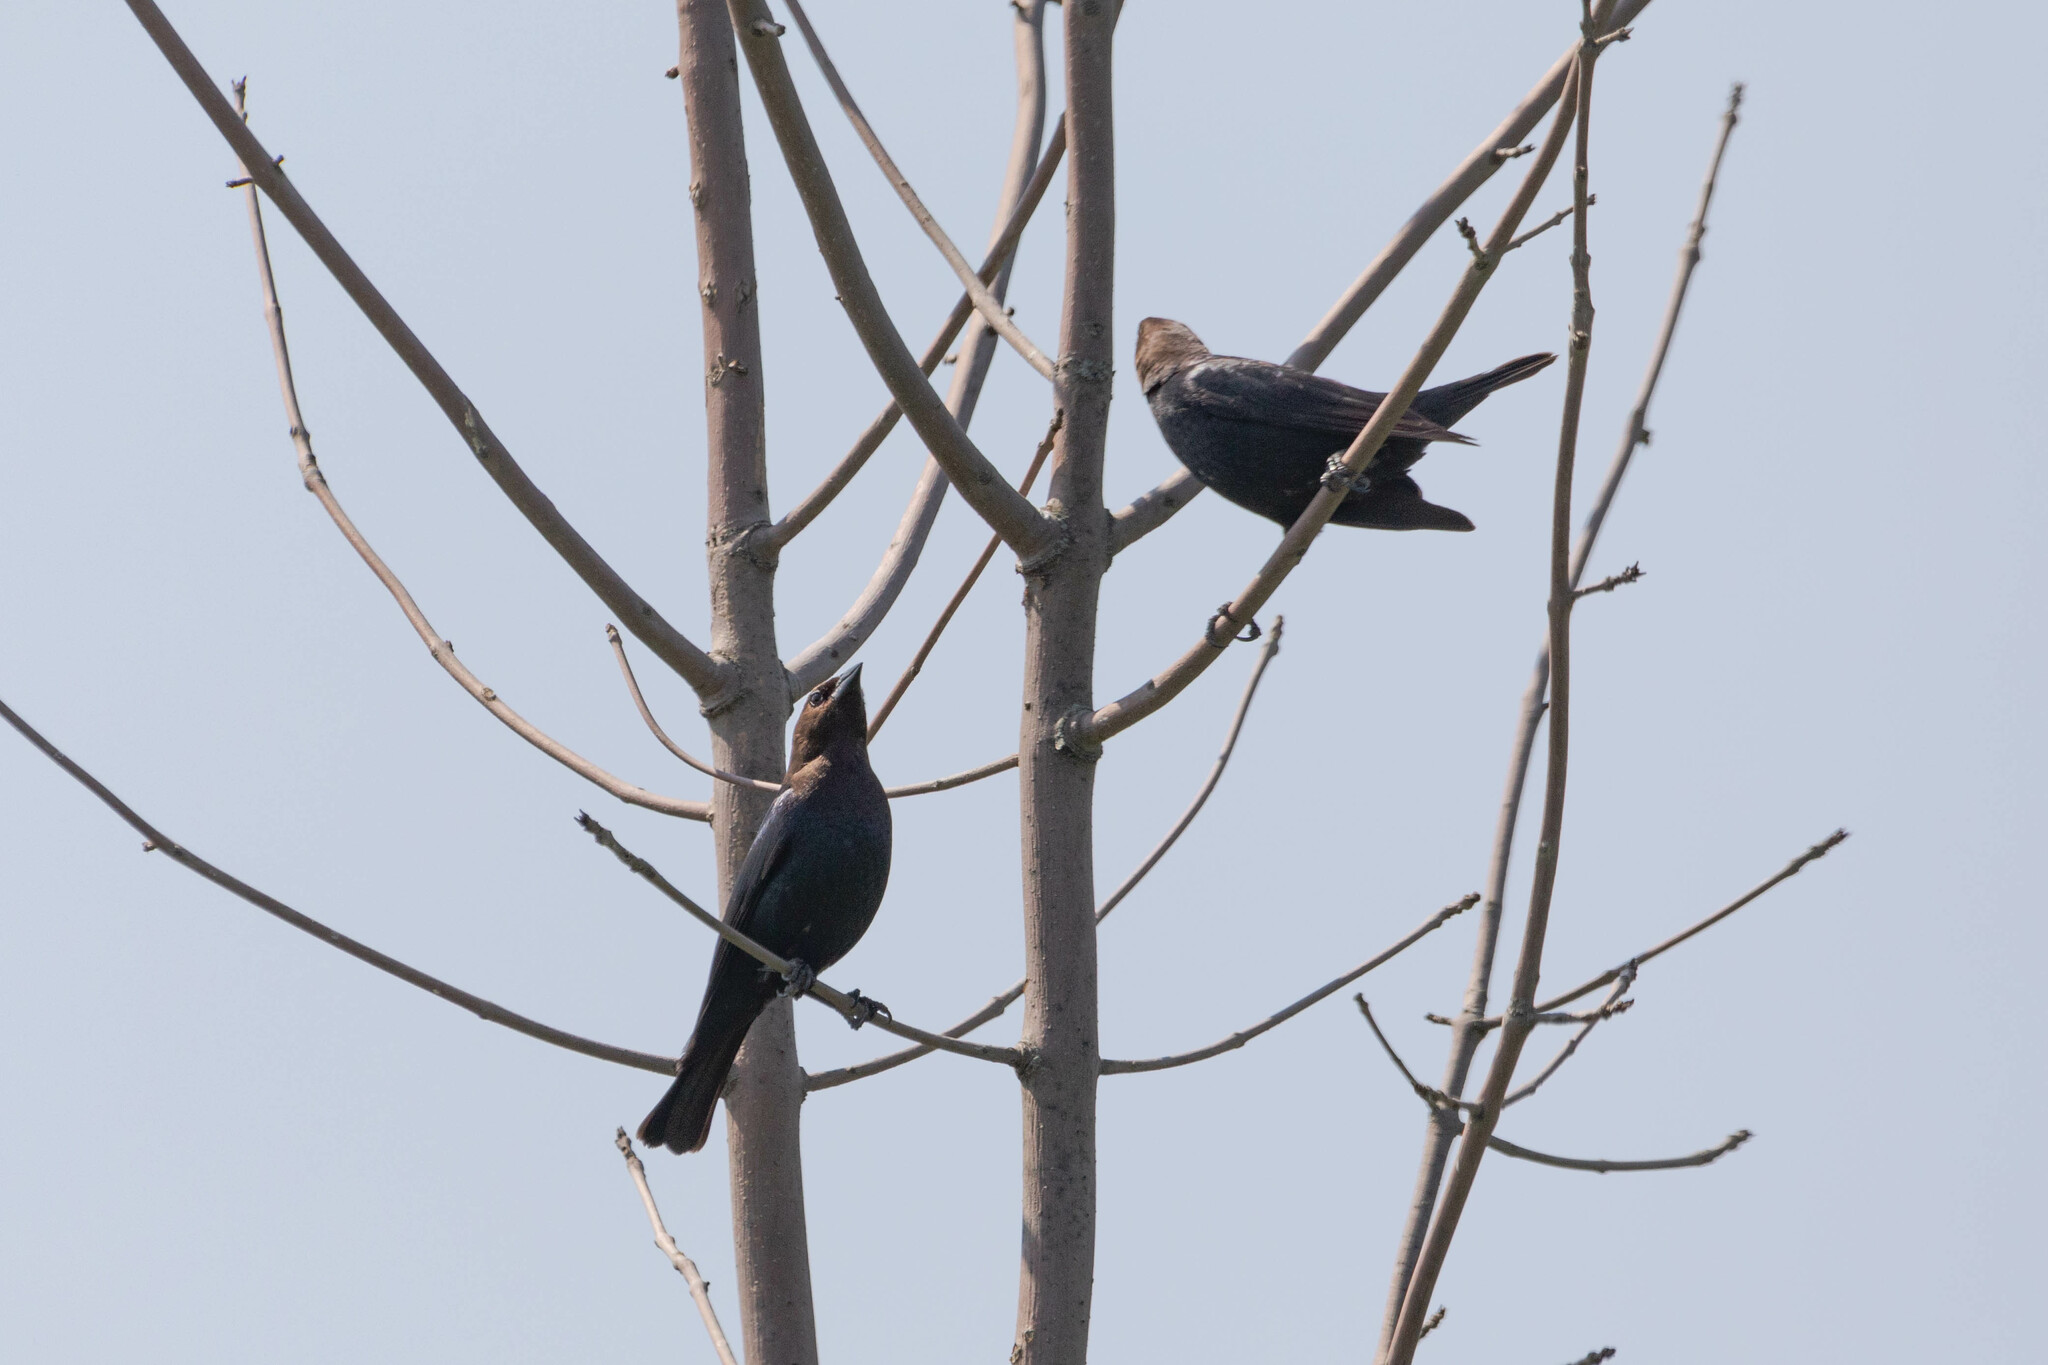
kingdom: Animalia
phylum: Chordata
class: Aves
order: Passeriformes
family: Icteridae
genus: Molothrus
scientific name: Molothrus ater
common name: Brown-headed cowbird
